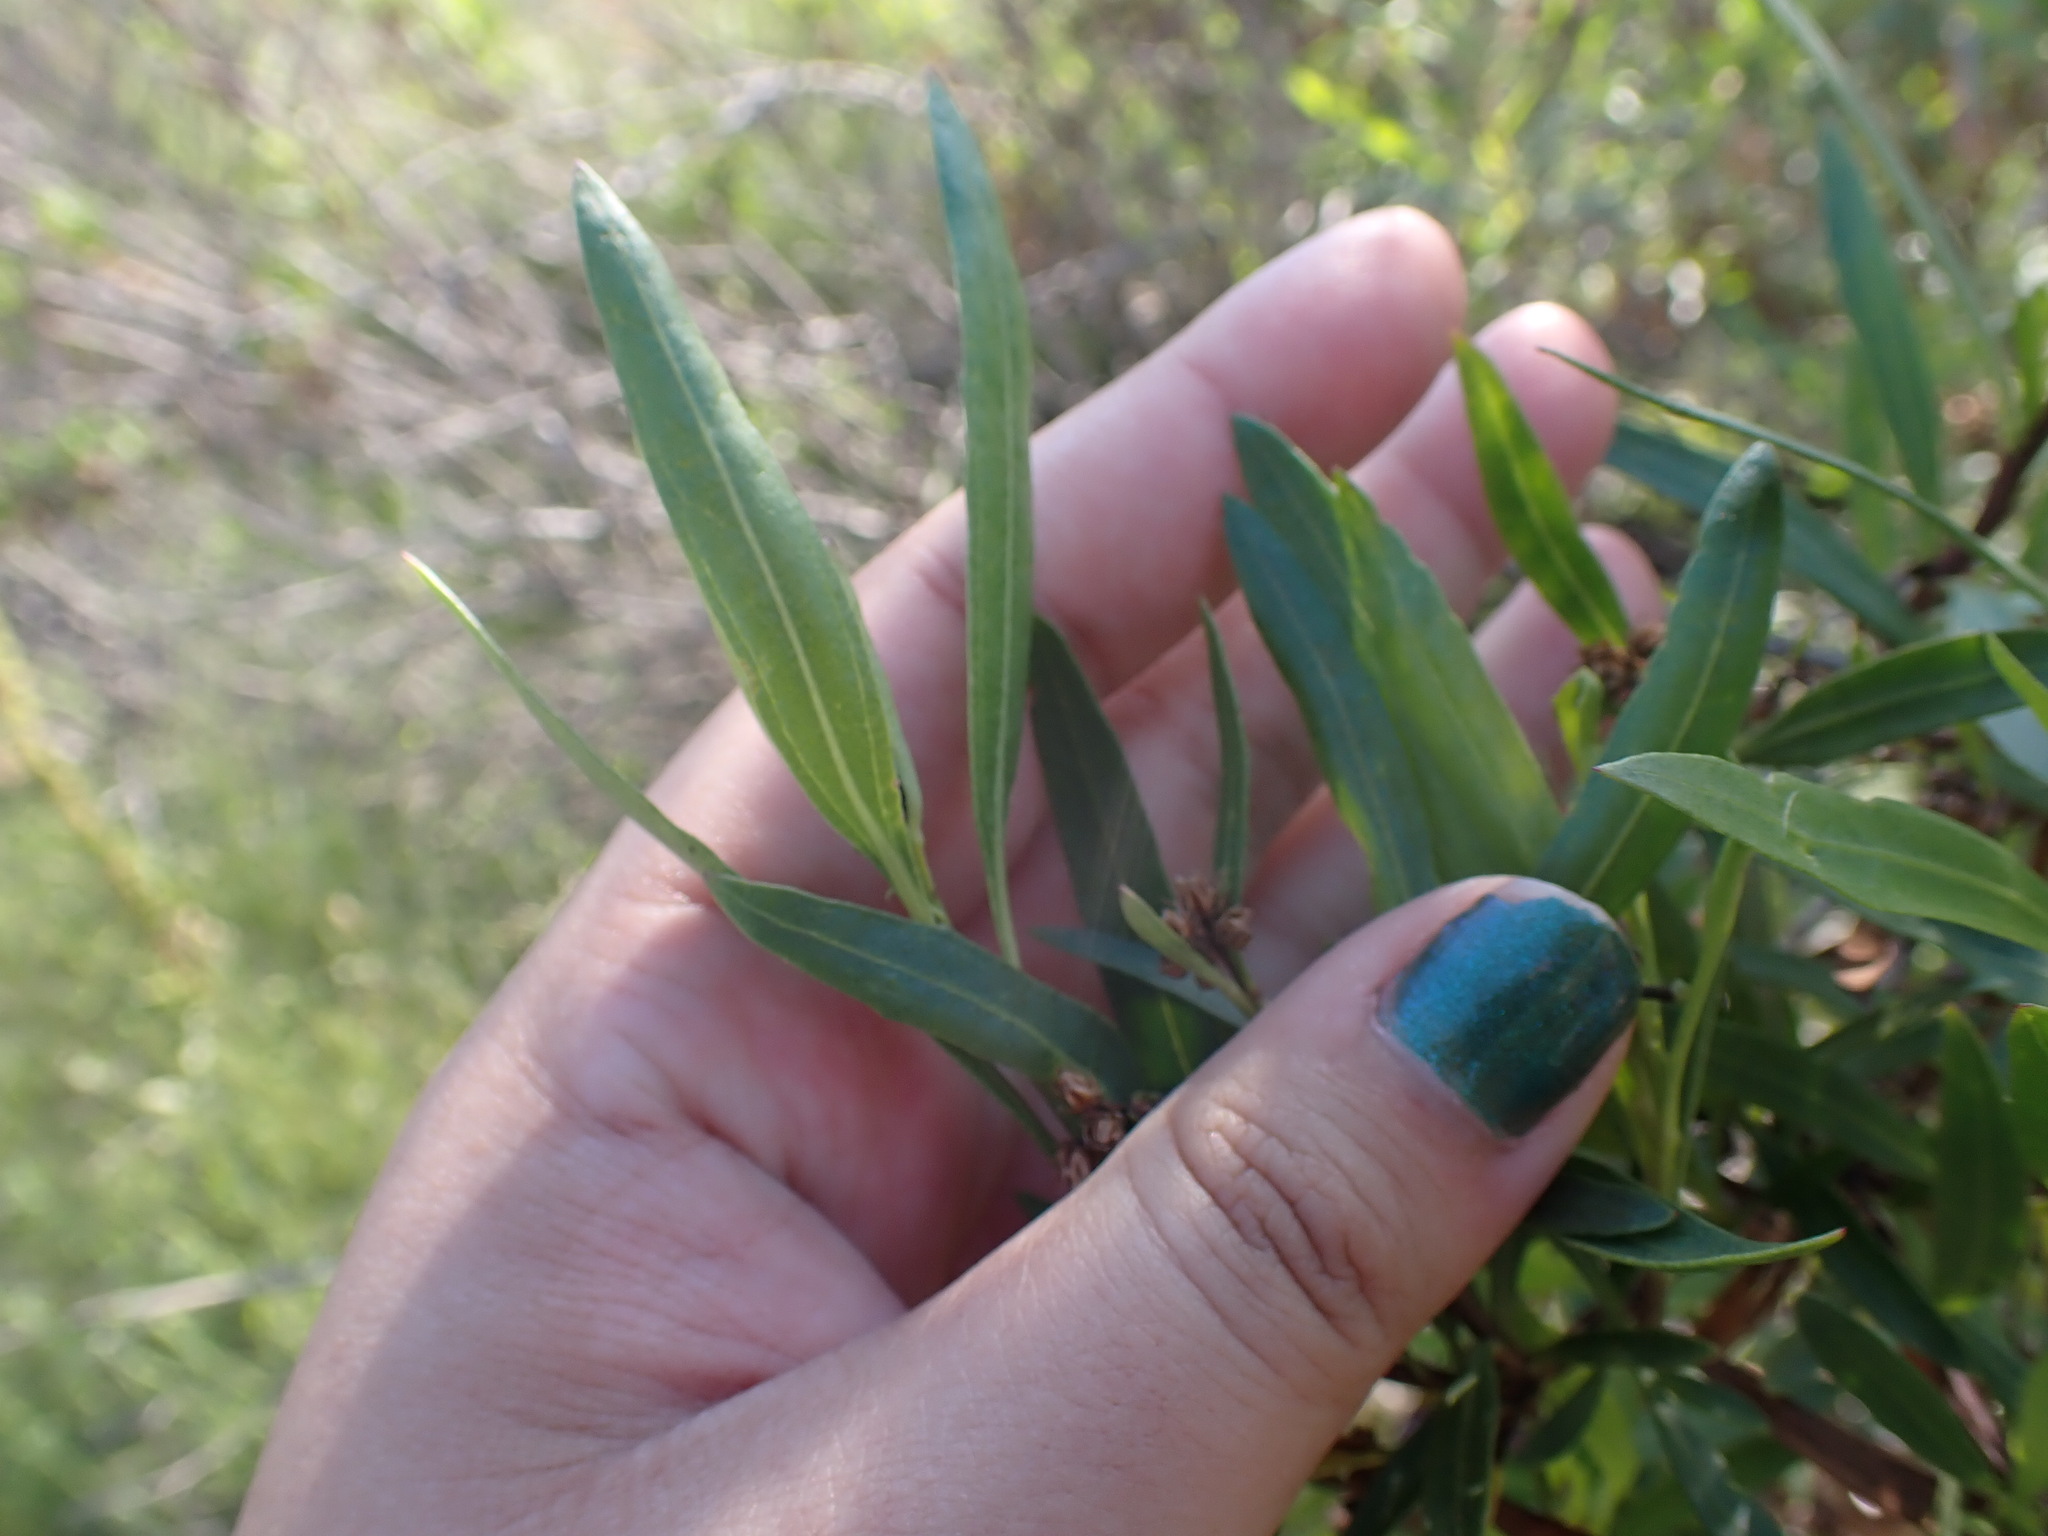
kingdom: Plantae
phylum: Tracheophyta
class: Magnoliopsida
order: Asterales
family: Asteraceae
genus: Baccharis
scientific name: Baccharis salicifolia
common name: Sticky baccharis
